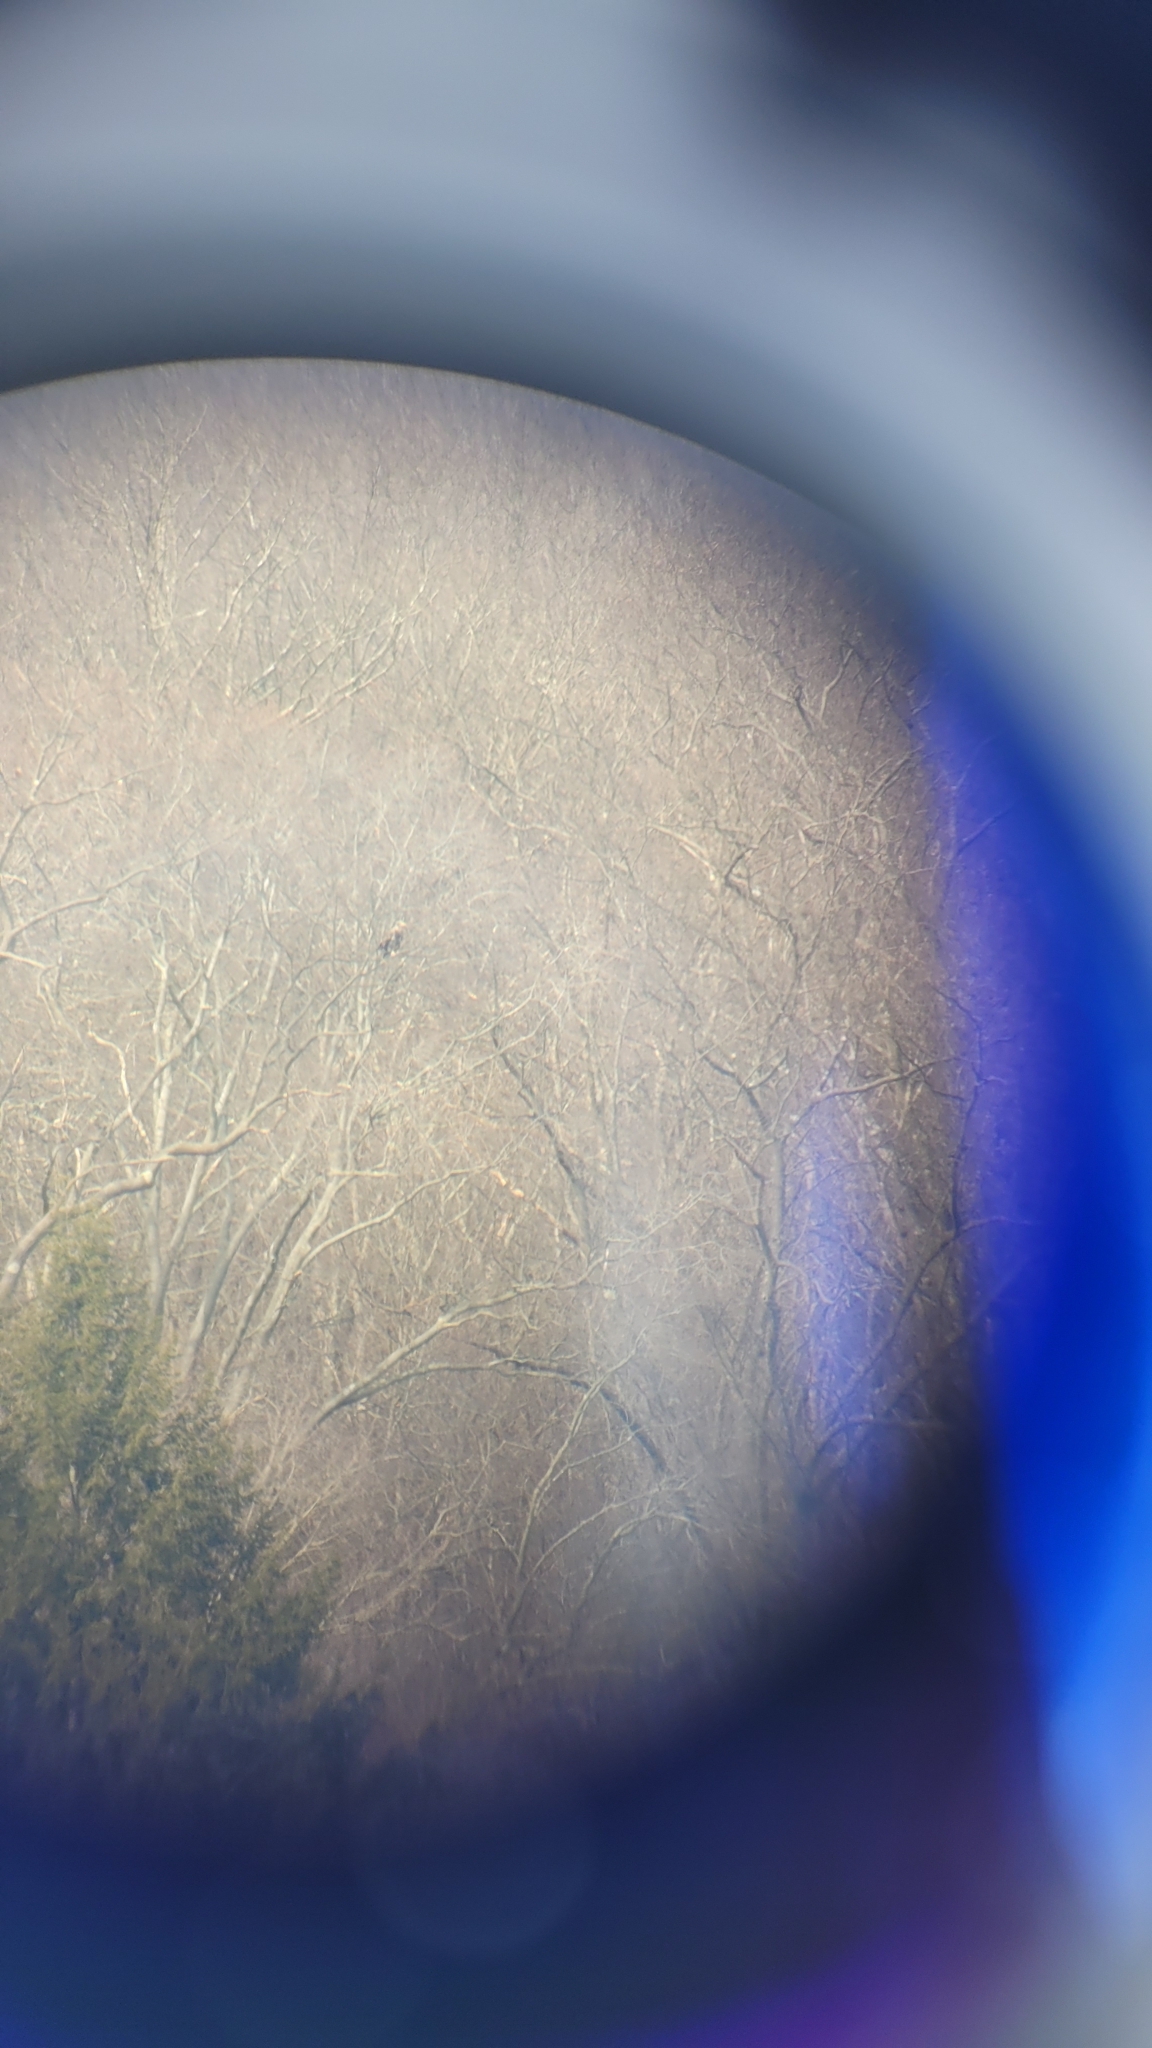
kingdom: Animalia
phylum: Chordata
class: Aves
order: Accipitriformes
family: Accipitridae
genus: Haliaeetus
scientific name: Haliaeetus leucocephalus
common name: Bald eagle
